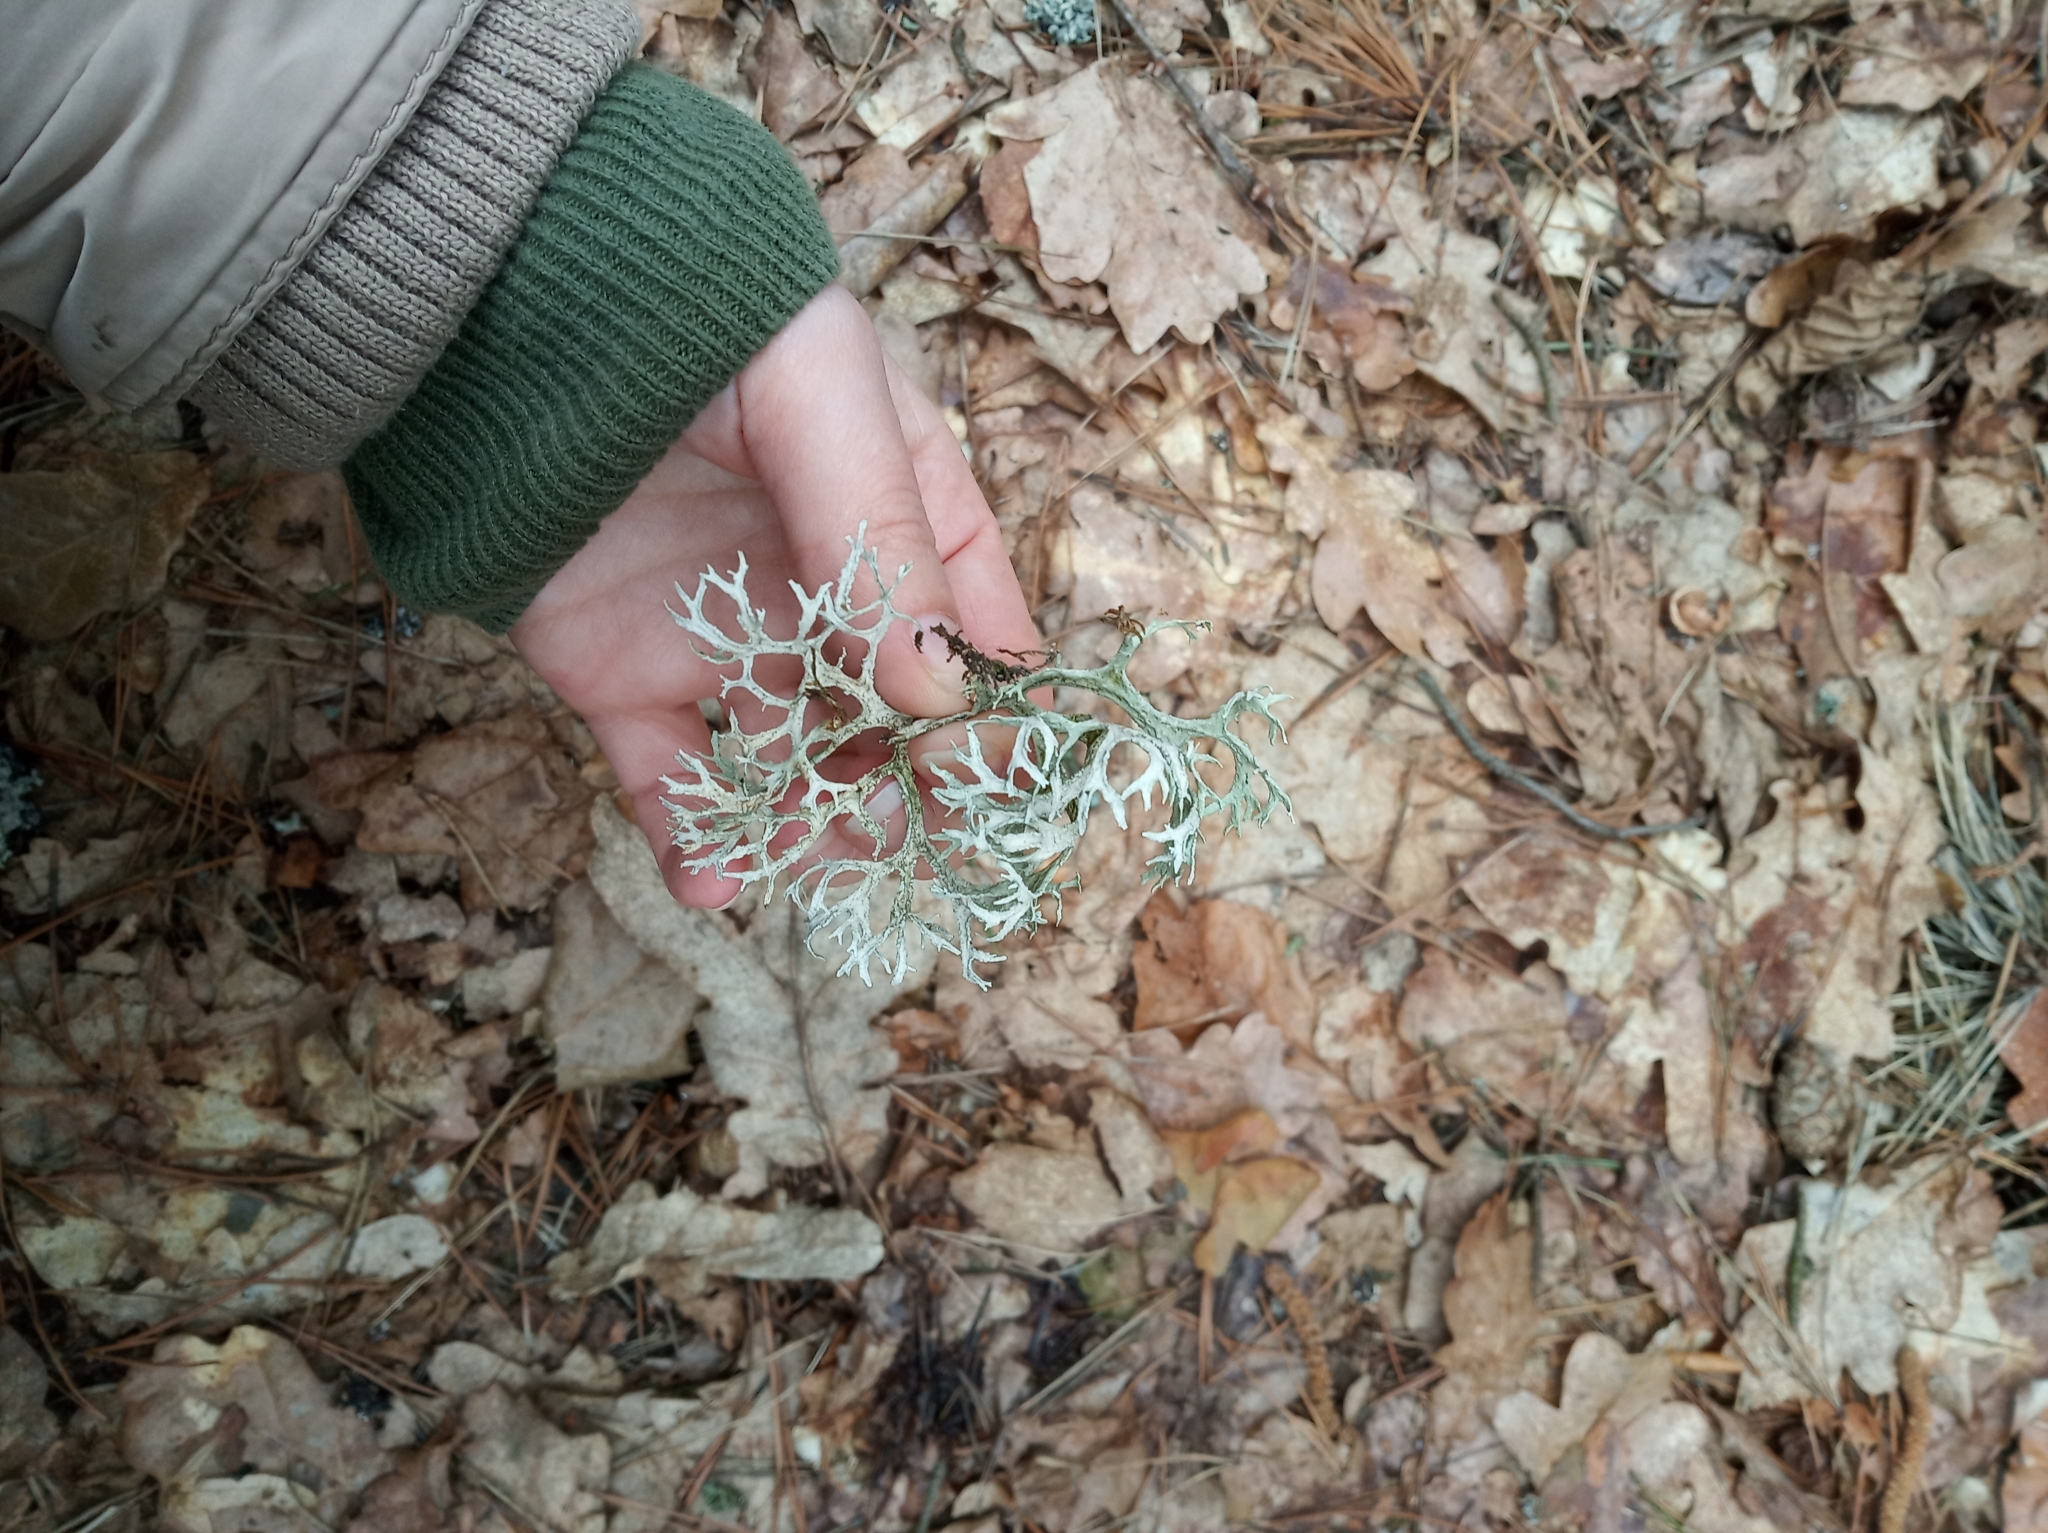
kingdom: Fungi
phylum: Ascomycota
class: Lecanoromycetes
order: Lecanorales
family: Parmeliaceae
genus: Evernia
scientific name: Evernia prunastri
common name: Oak moss
